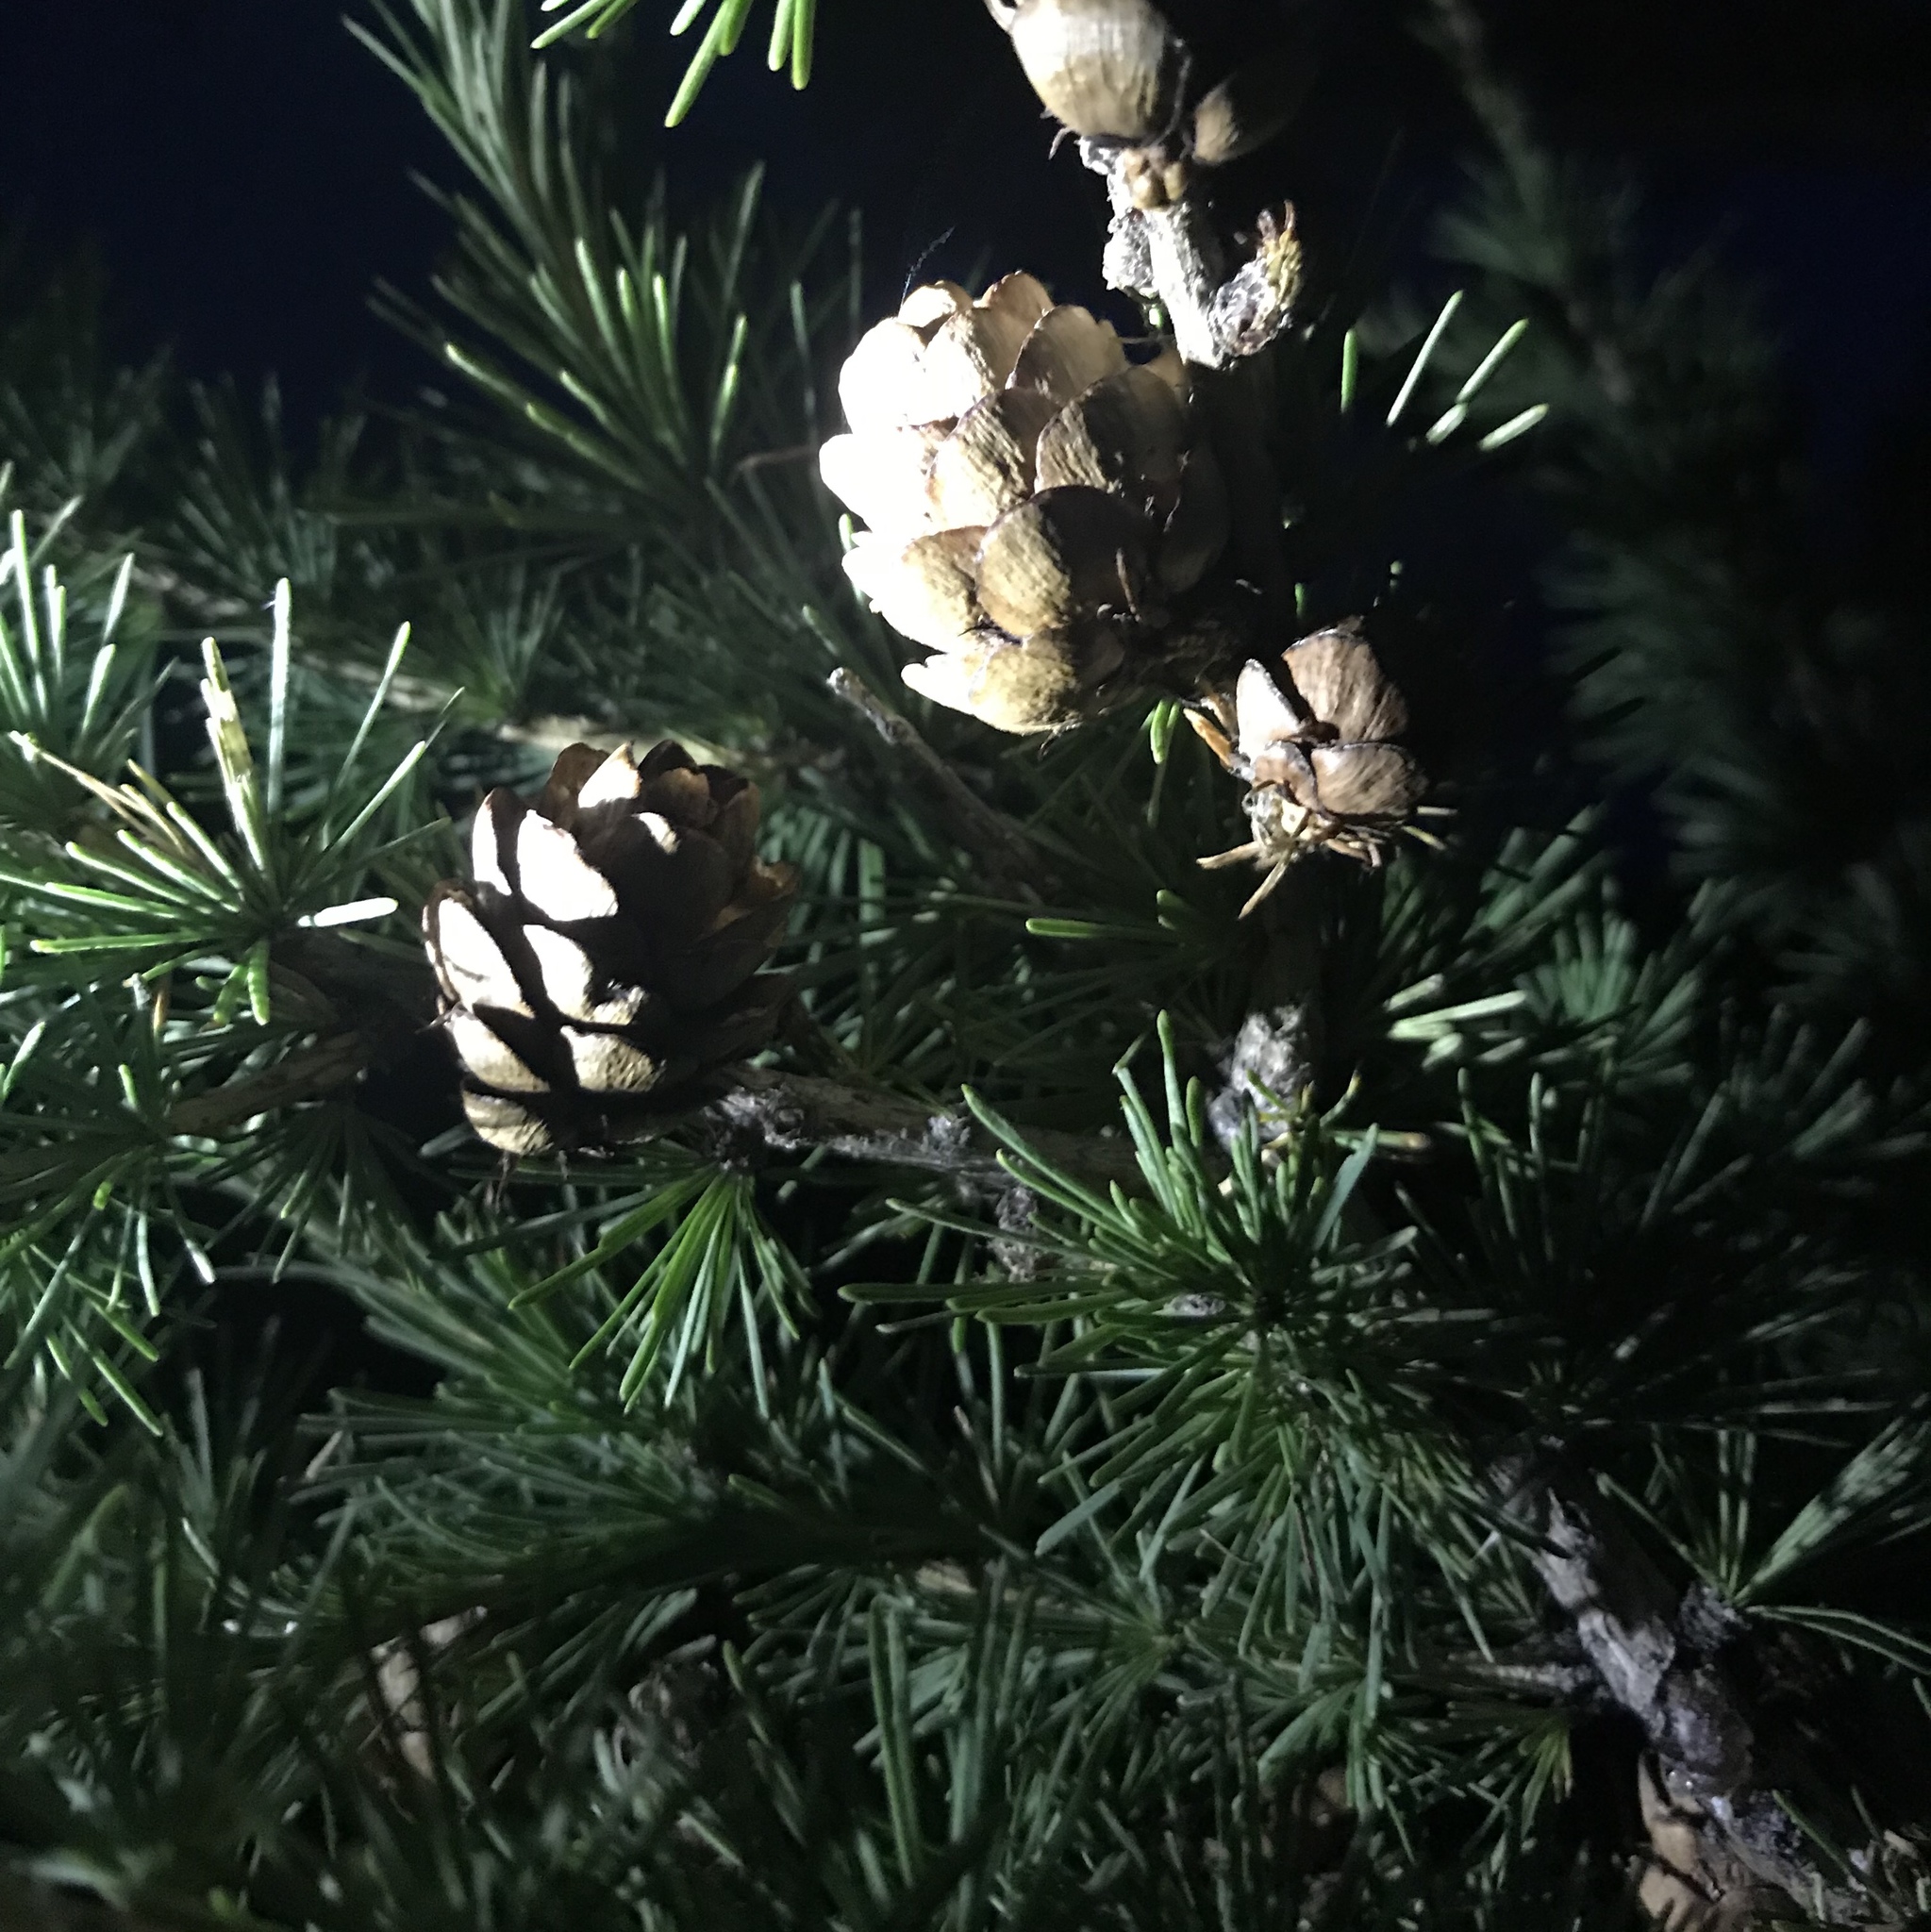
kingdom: Plantae
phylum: Tracheophyta
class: Pinopsida
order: Pinales
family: Pinaceae
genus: Larix
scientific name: Larix sibirica
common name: Siberian larch
